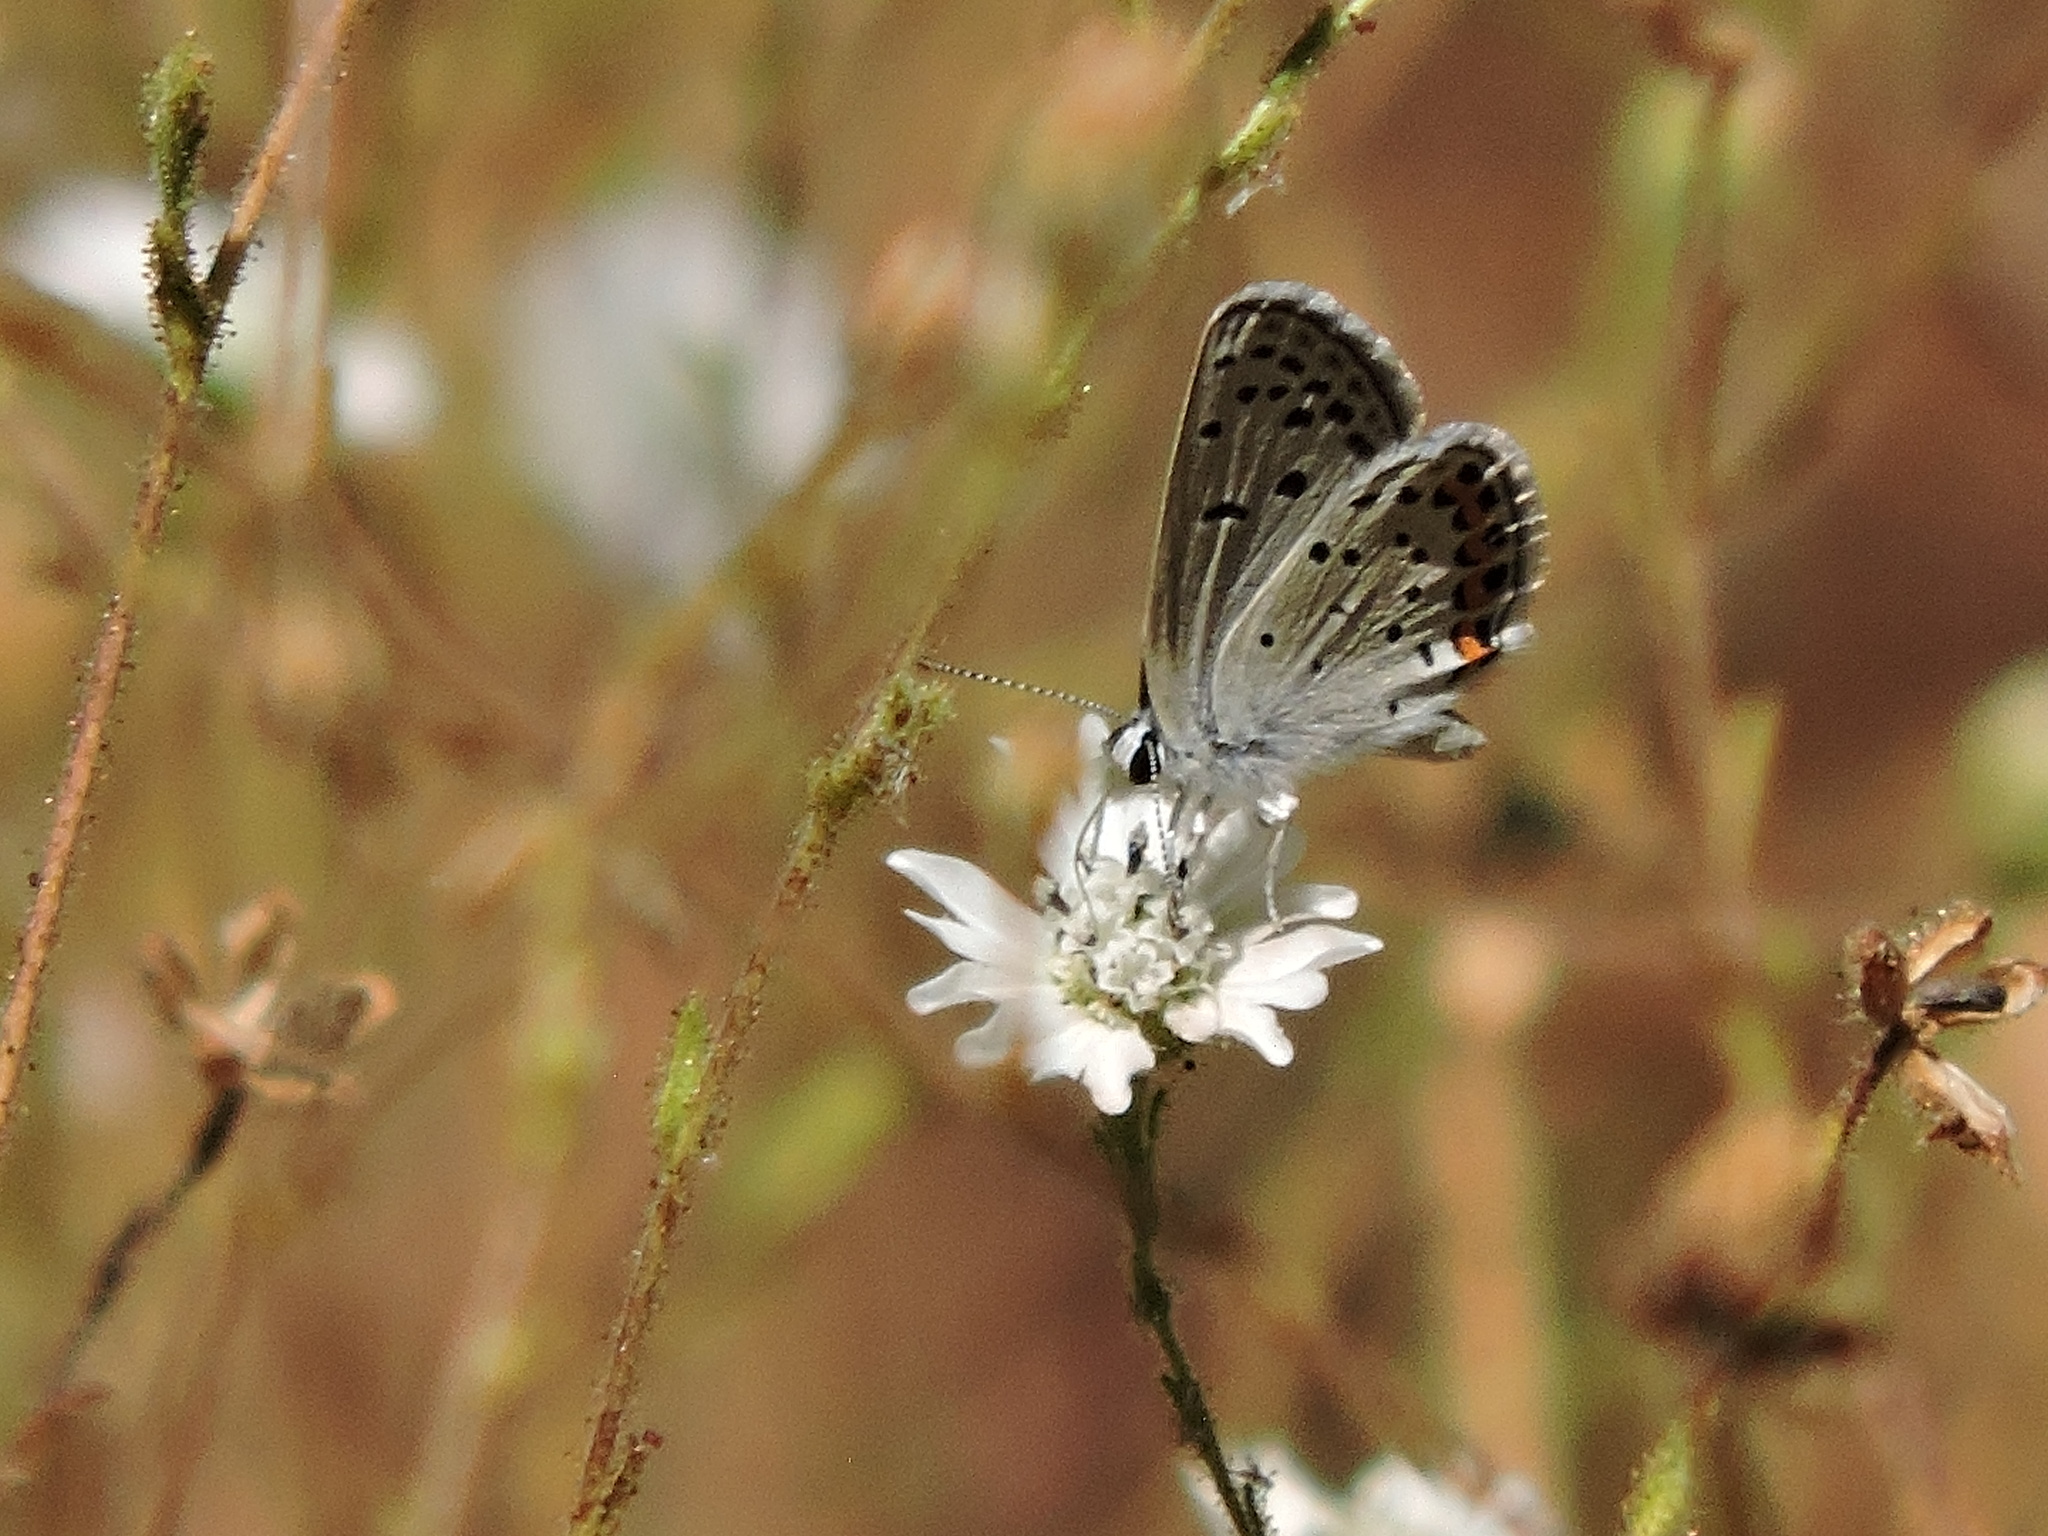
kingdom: Animalia
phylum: Arthropoda
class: Insecta
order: Lepidoptera
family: Lycaenidae
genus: Icaricia
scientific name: Icaricia acmon
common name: Acmon blue
